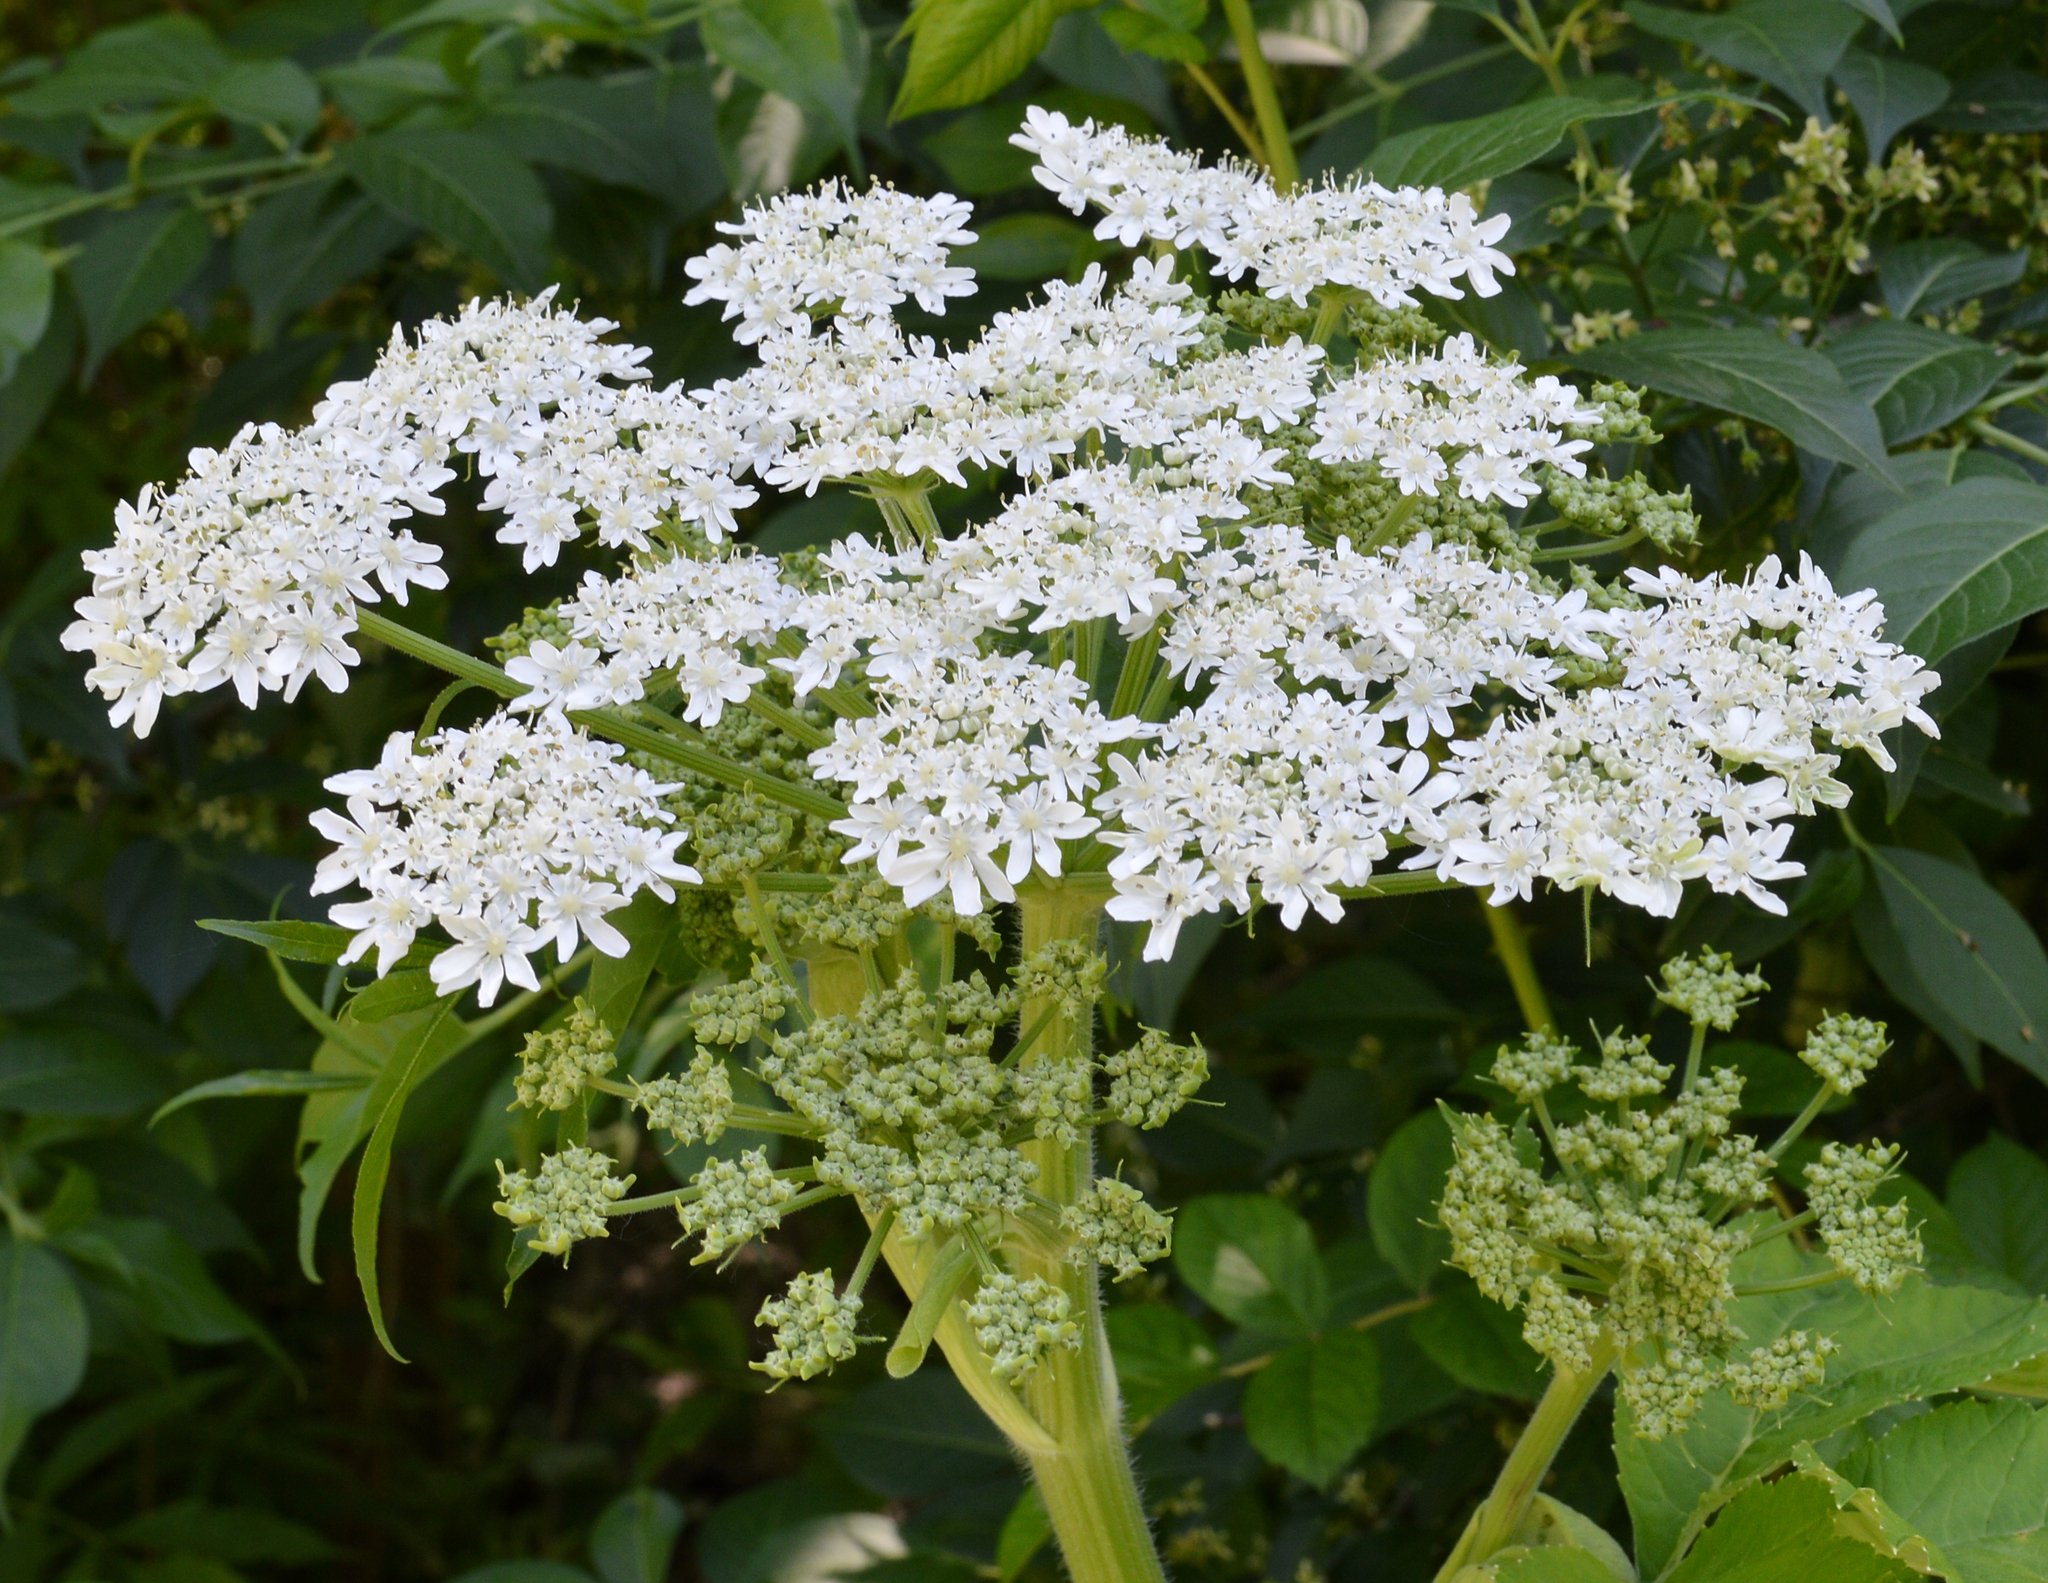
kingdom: Plantae
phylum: Tracheophyta
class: Magnoliopsida
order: Apiales
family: Apiaceae
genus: Heracleum
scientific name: Heracleum maximum
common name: American cow parsnip
